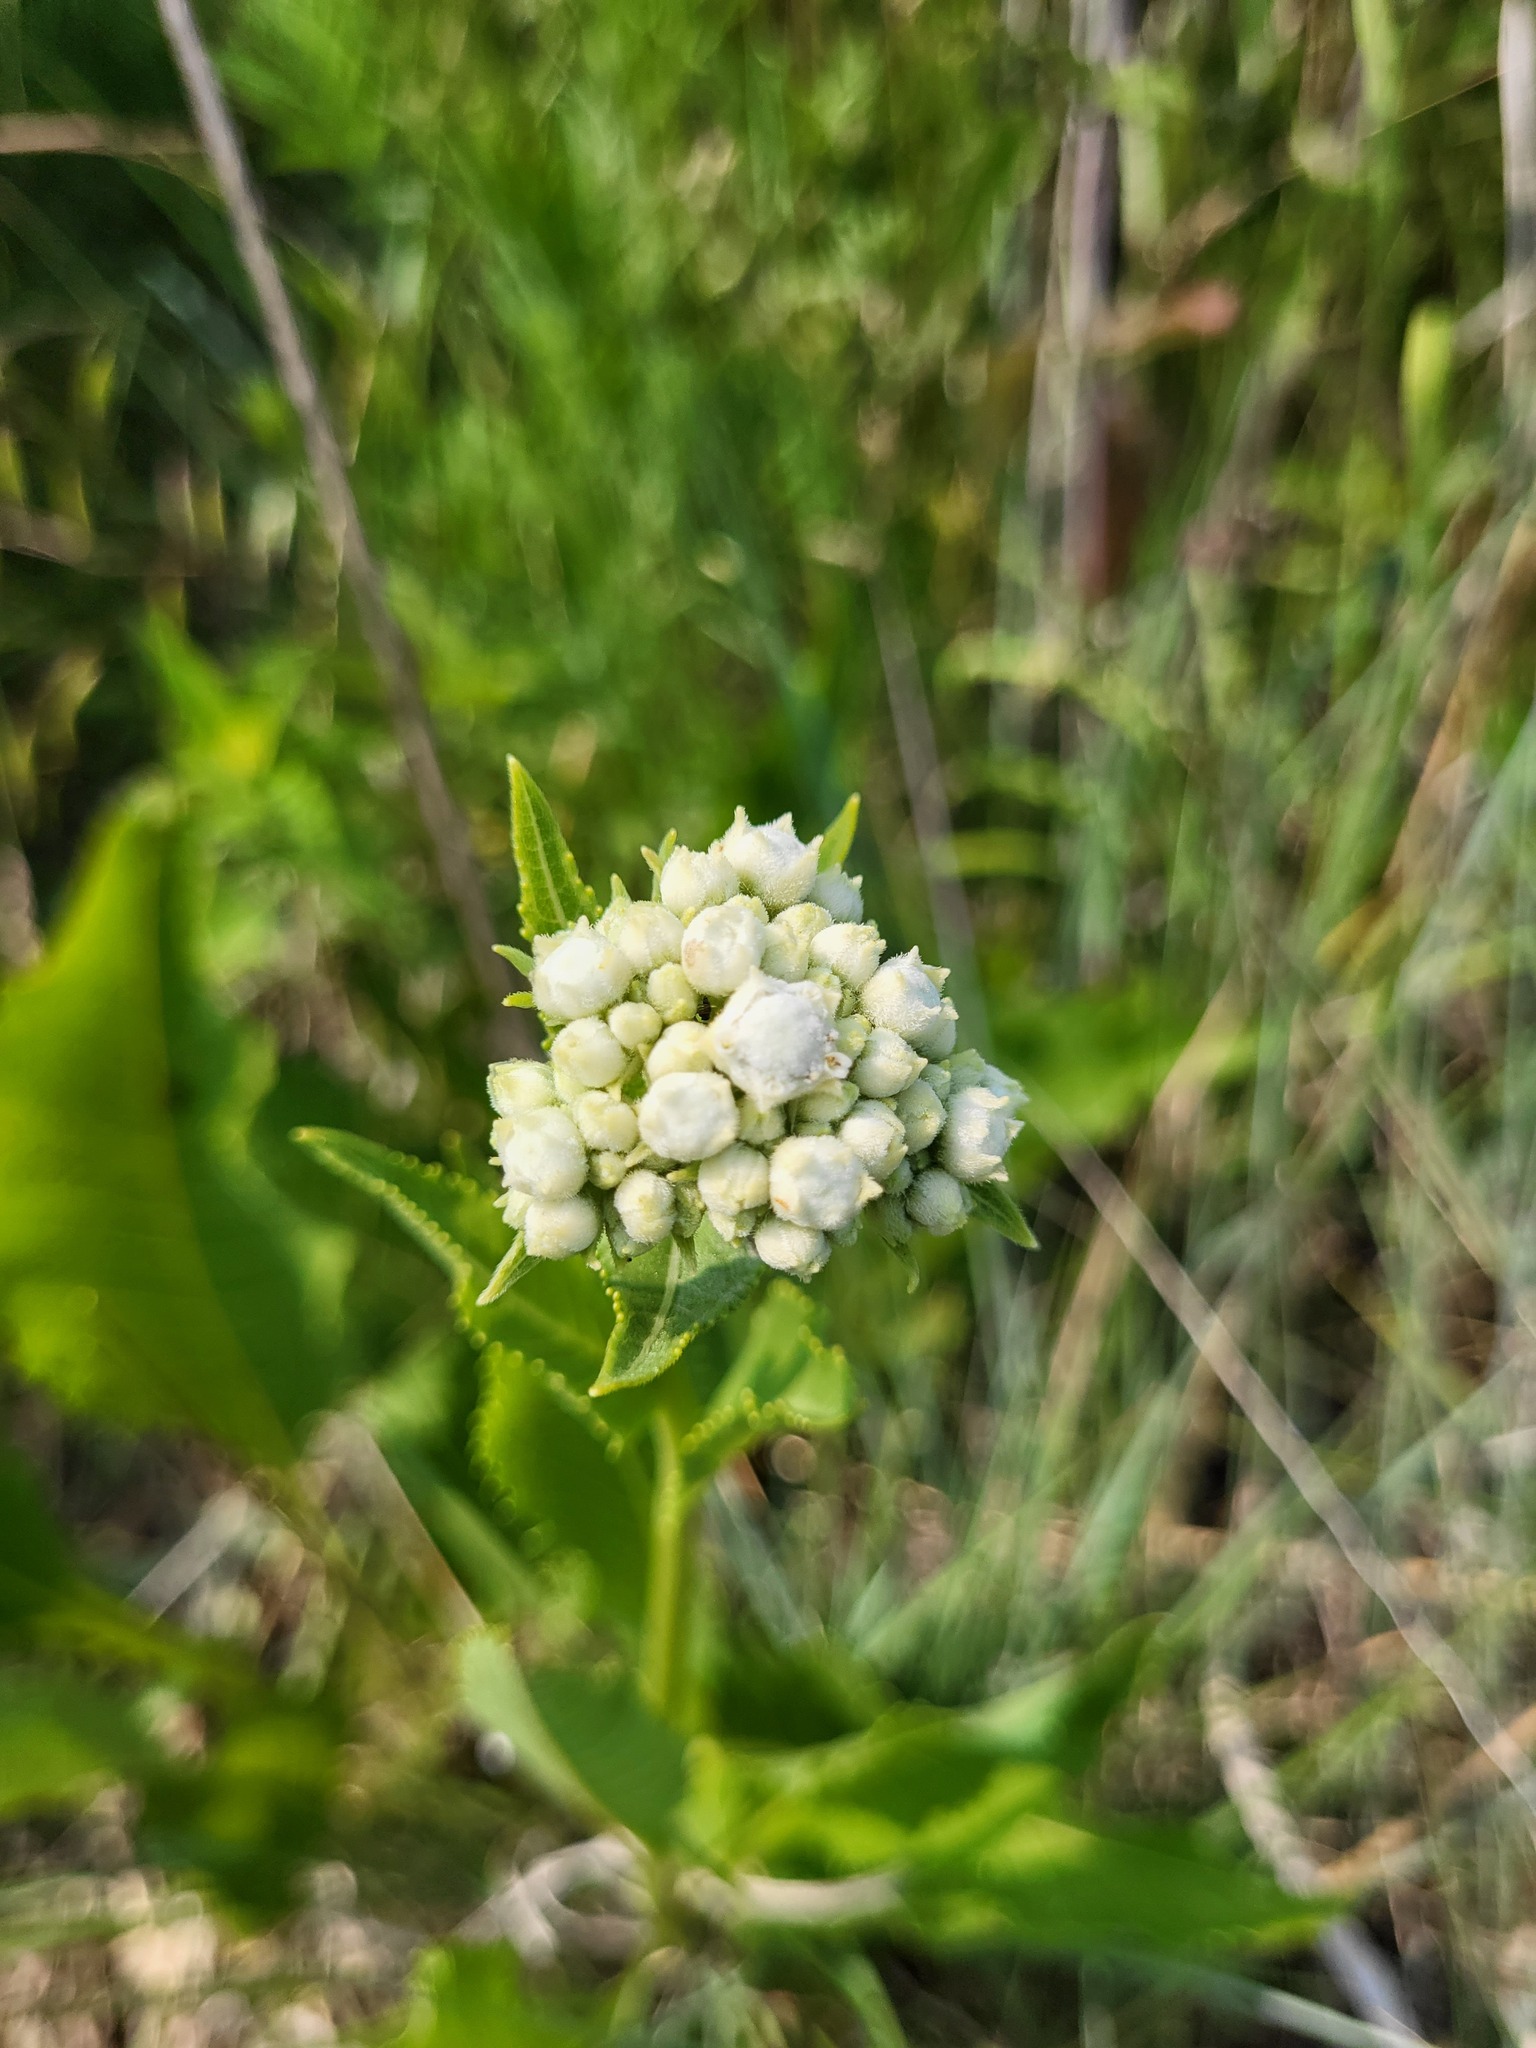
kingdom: Plantae
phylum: Tracheophyta
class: Magnoliopsida
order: Asterales
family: Asteraceae
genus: Parthenium
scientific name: Parthenium integrifolium
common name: American feverfew
